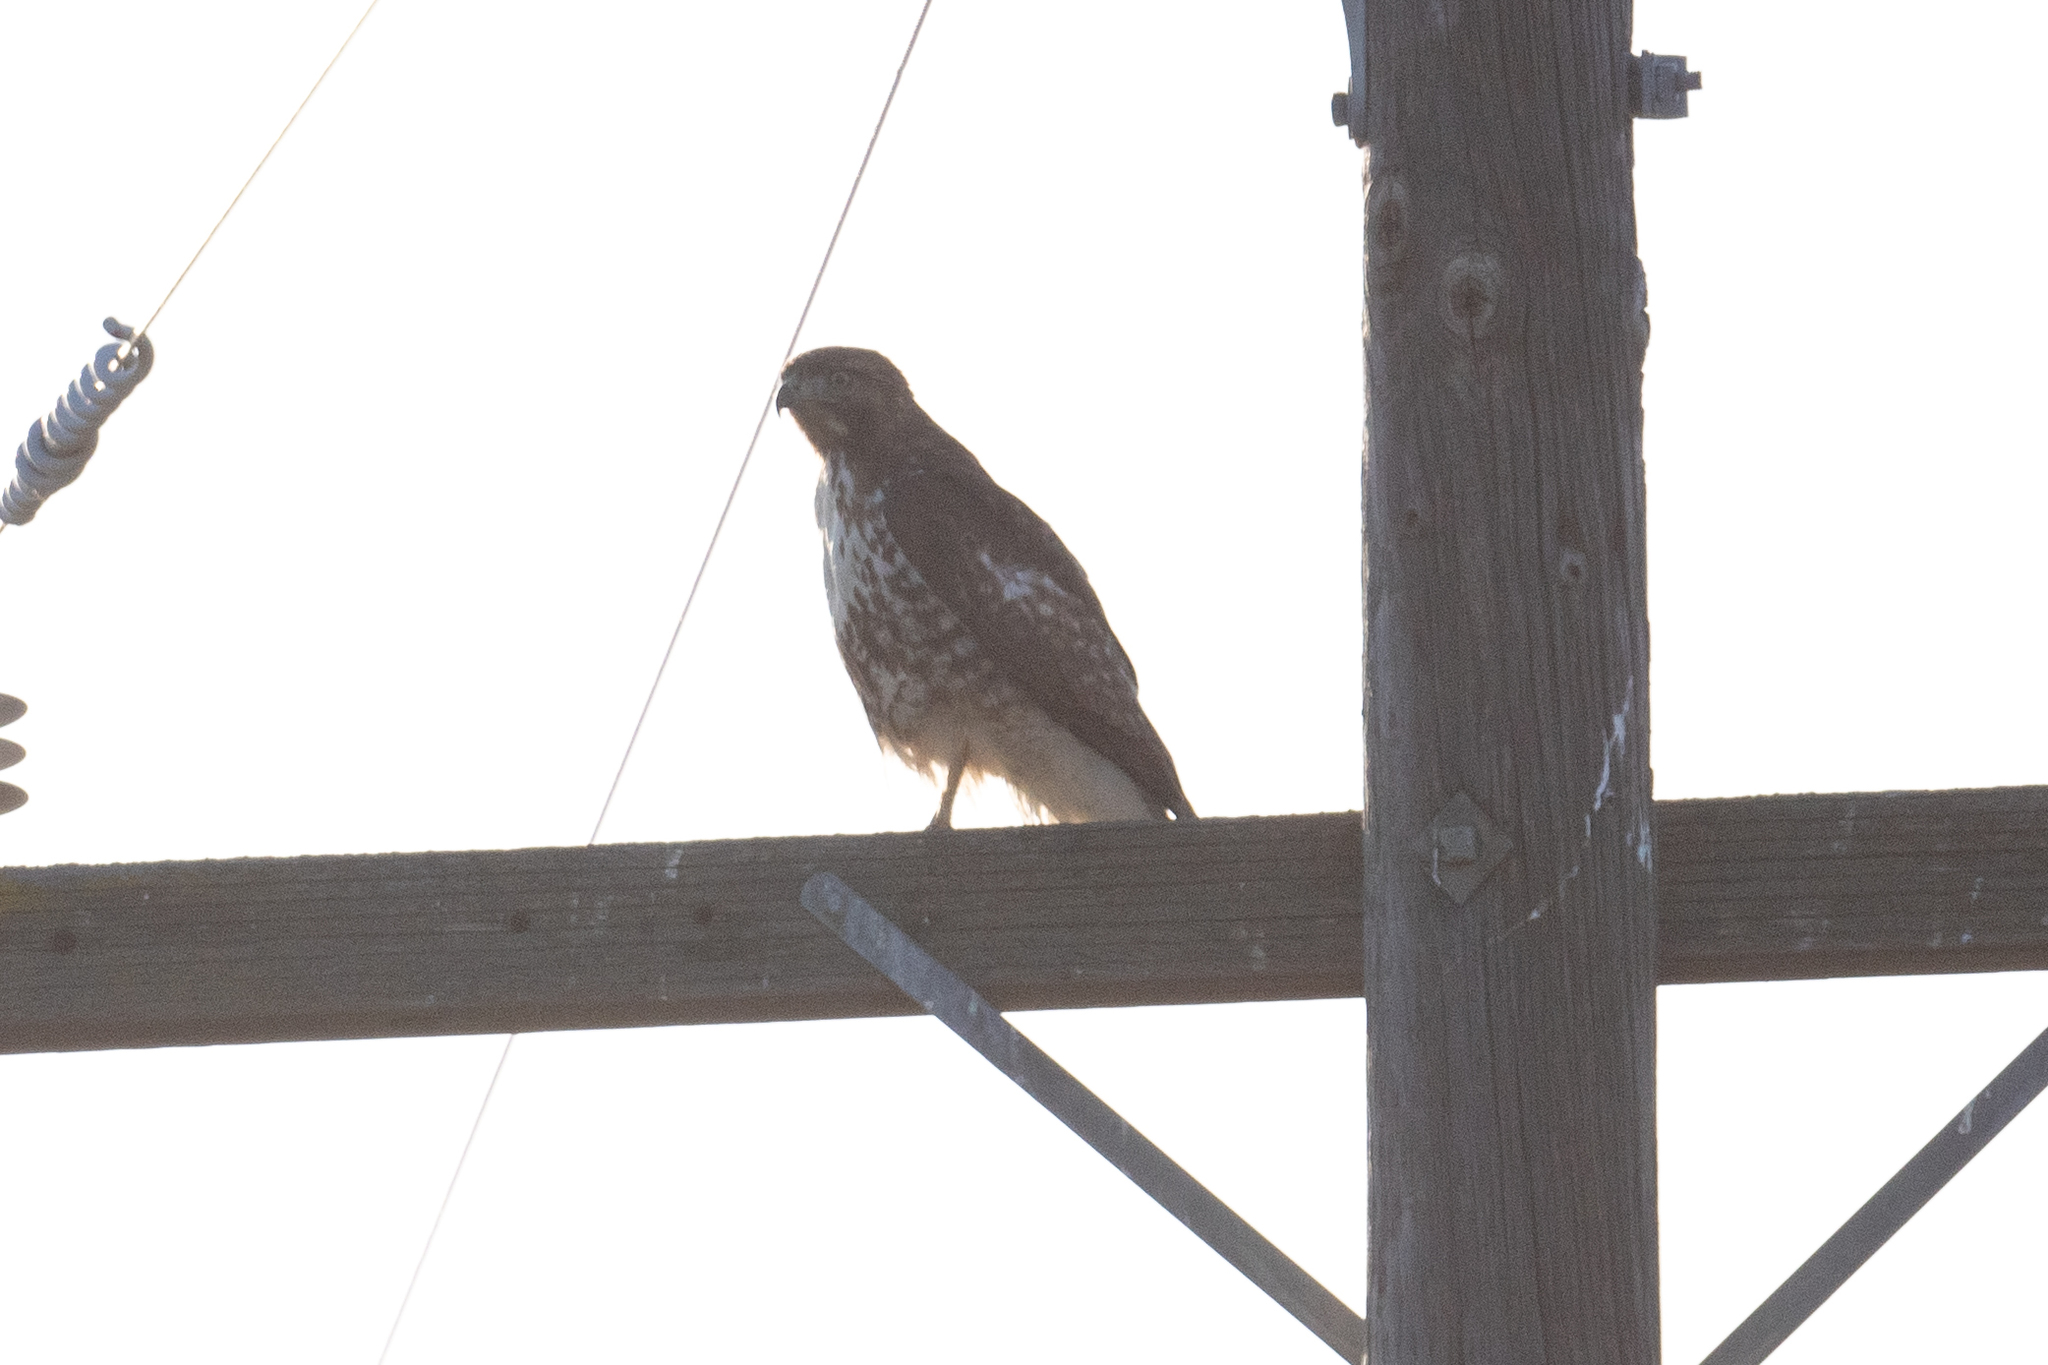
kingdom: Animalia
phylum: Chordata
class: Aves
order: Accipitriformes
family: Accipitridae
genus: Buteo
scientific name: Buteo jamaicensis
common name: Red-tailed hawk
